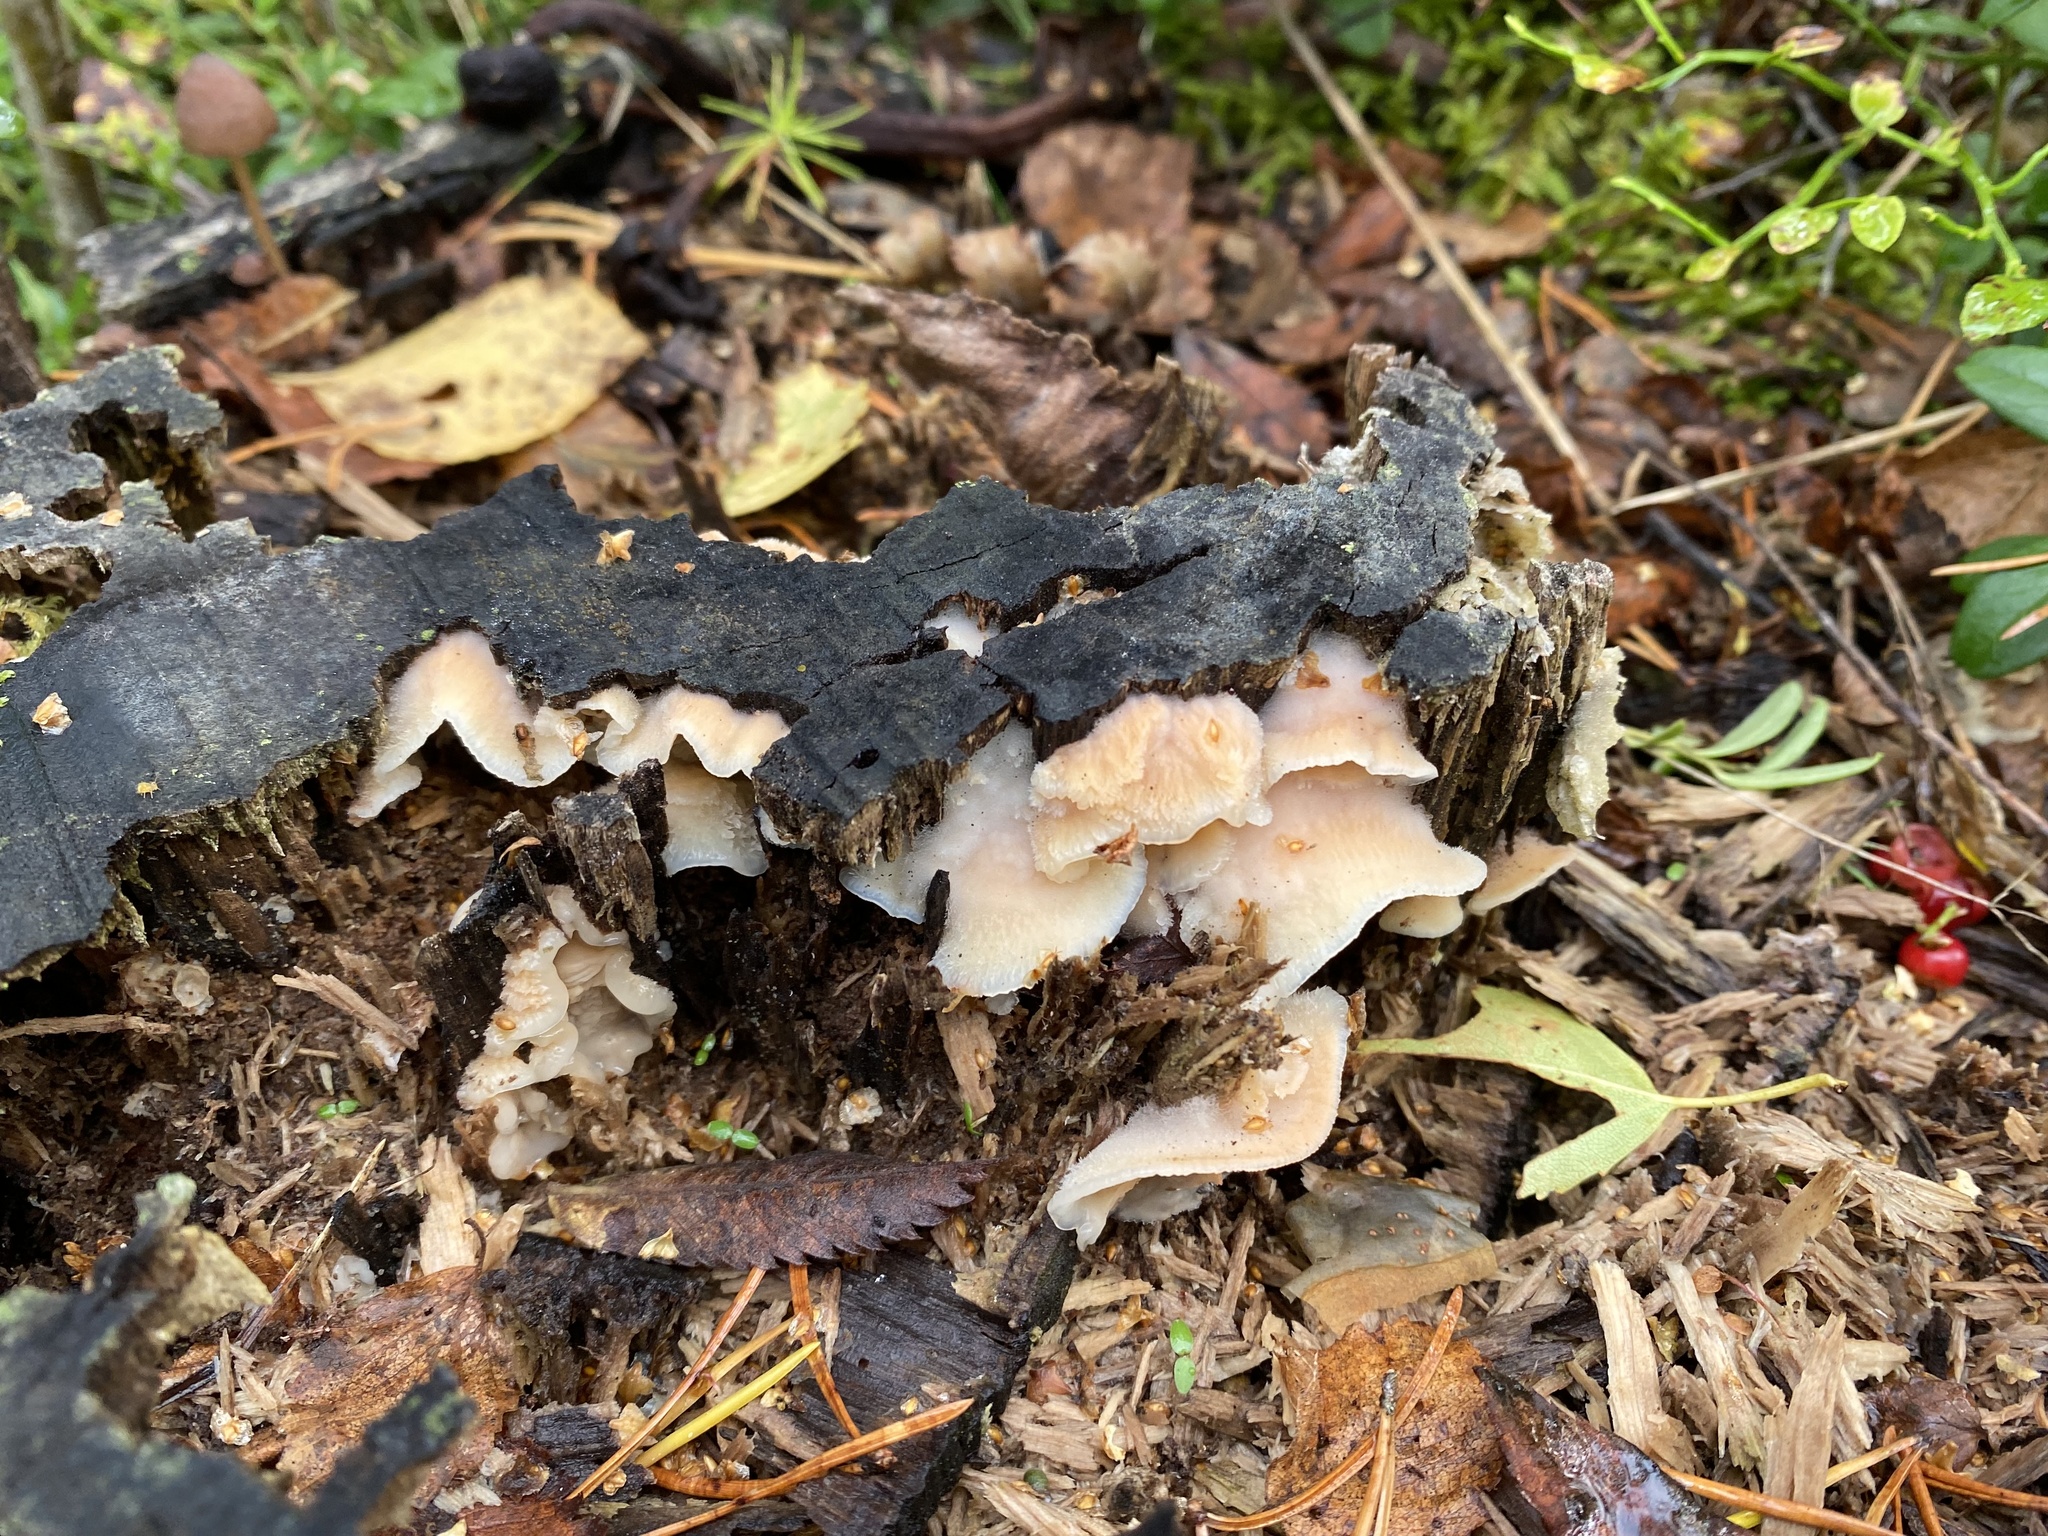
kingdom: Fungi
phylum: Basidiomycota
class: Agaricomycetes
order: Polyporales
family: Meruliaceae
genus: Phlebia
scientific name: Phlebia tremellosa
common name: Jelly rot
